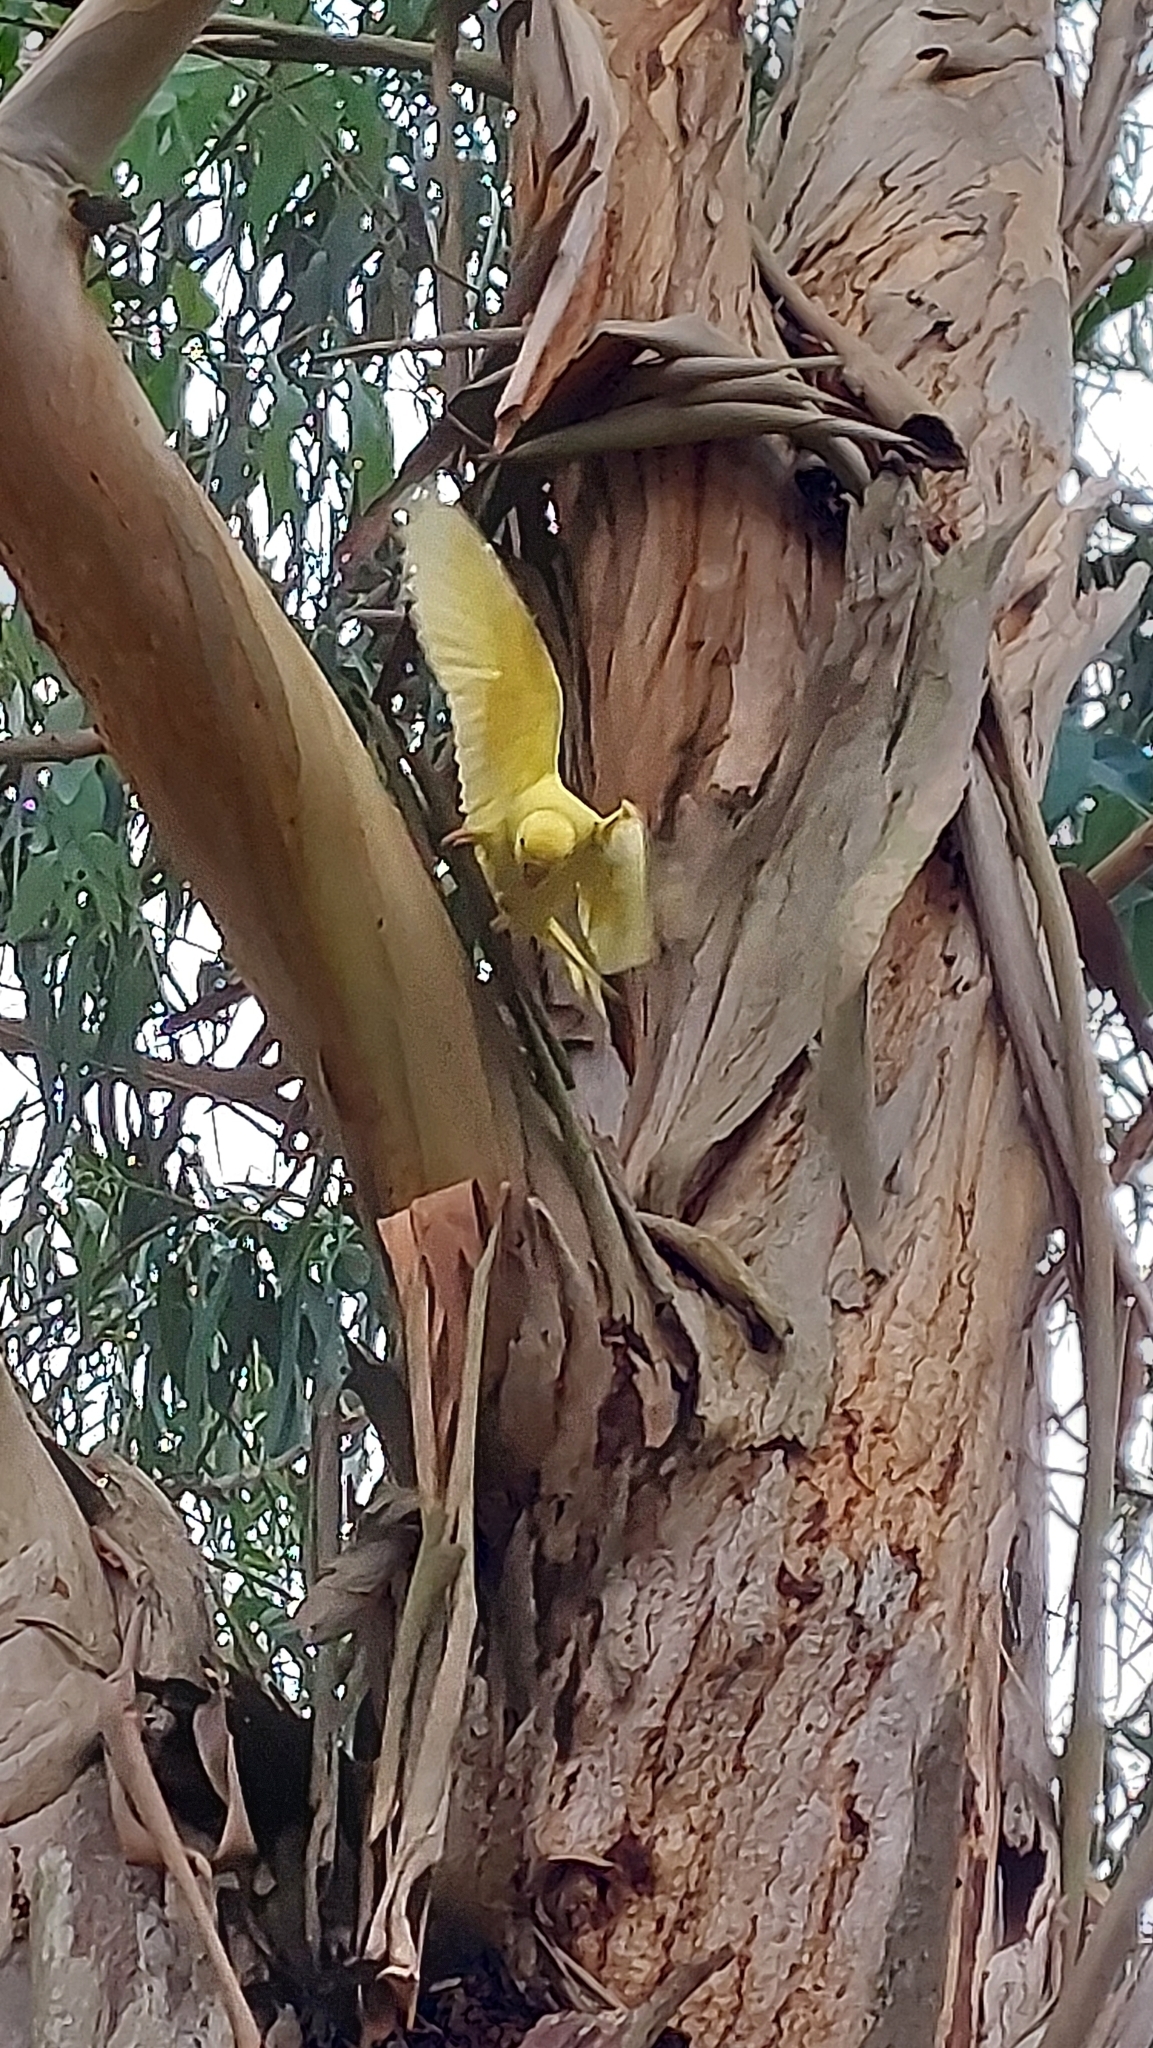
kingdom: Animalia
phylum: Chordata
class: Aves
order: Psittaciformes
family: Psittacidae
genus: Psittacula
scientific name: Psittacula krameri
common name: Rose-ringed parakeet
